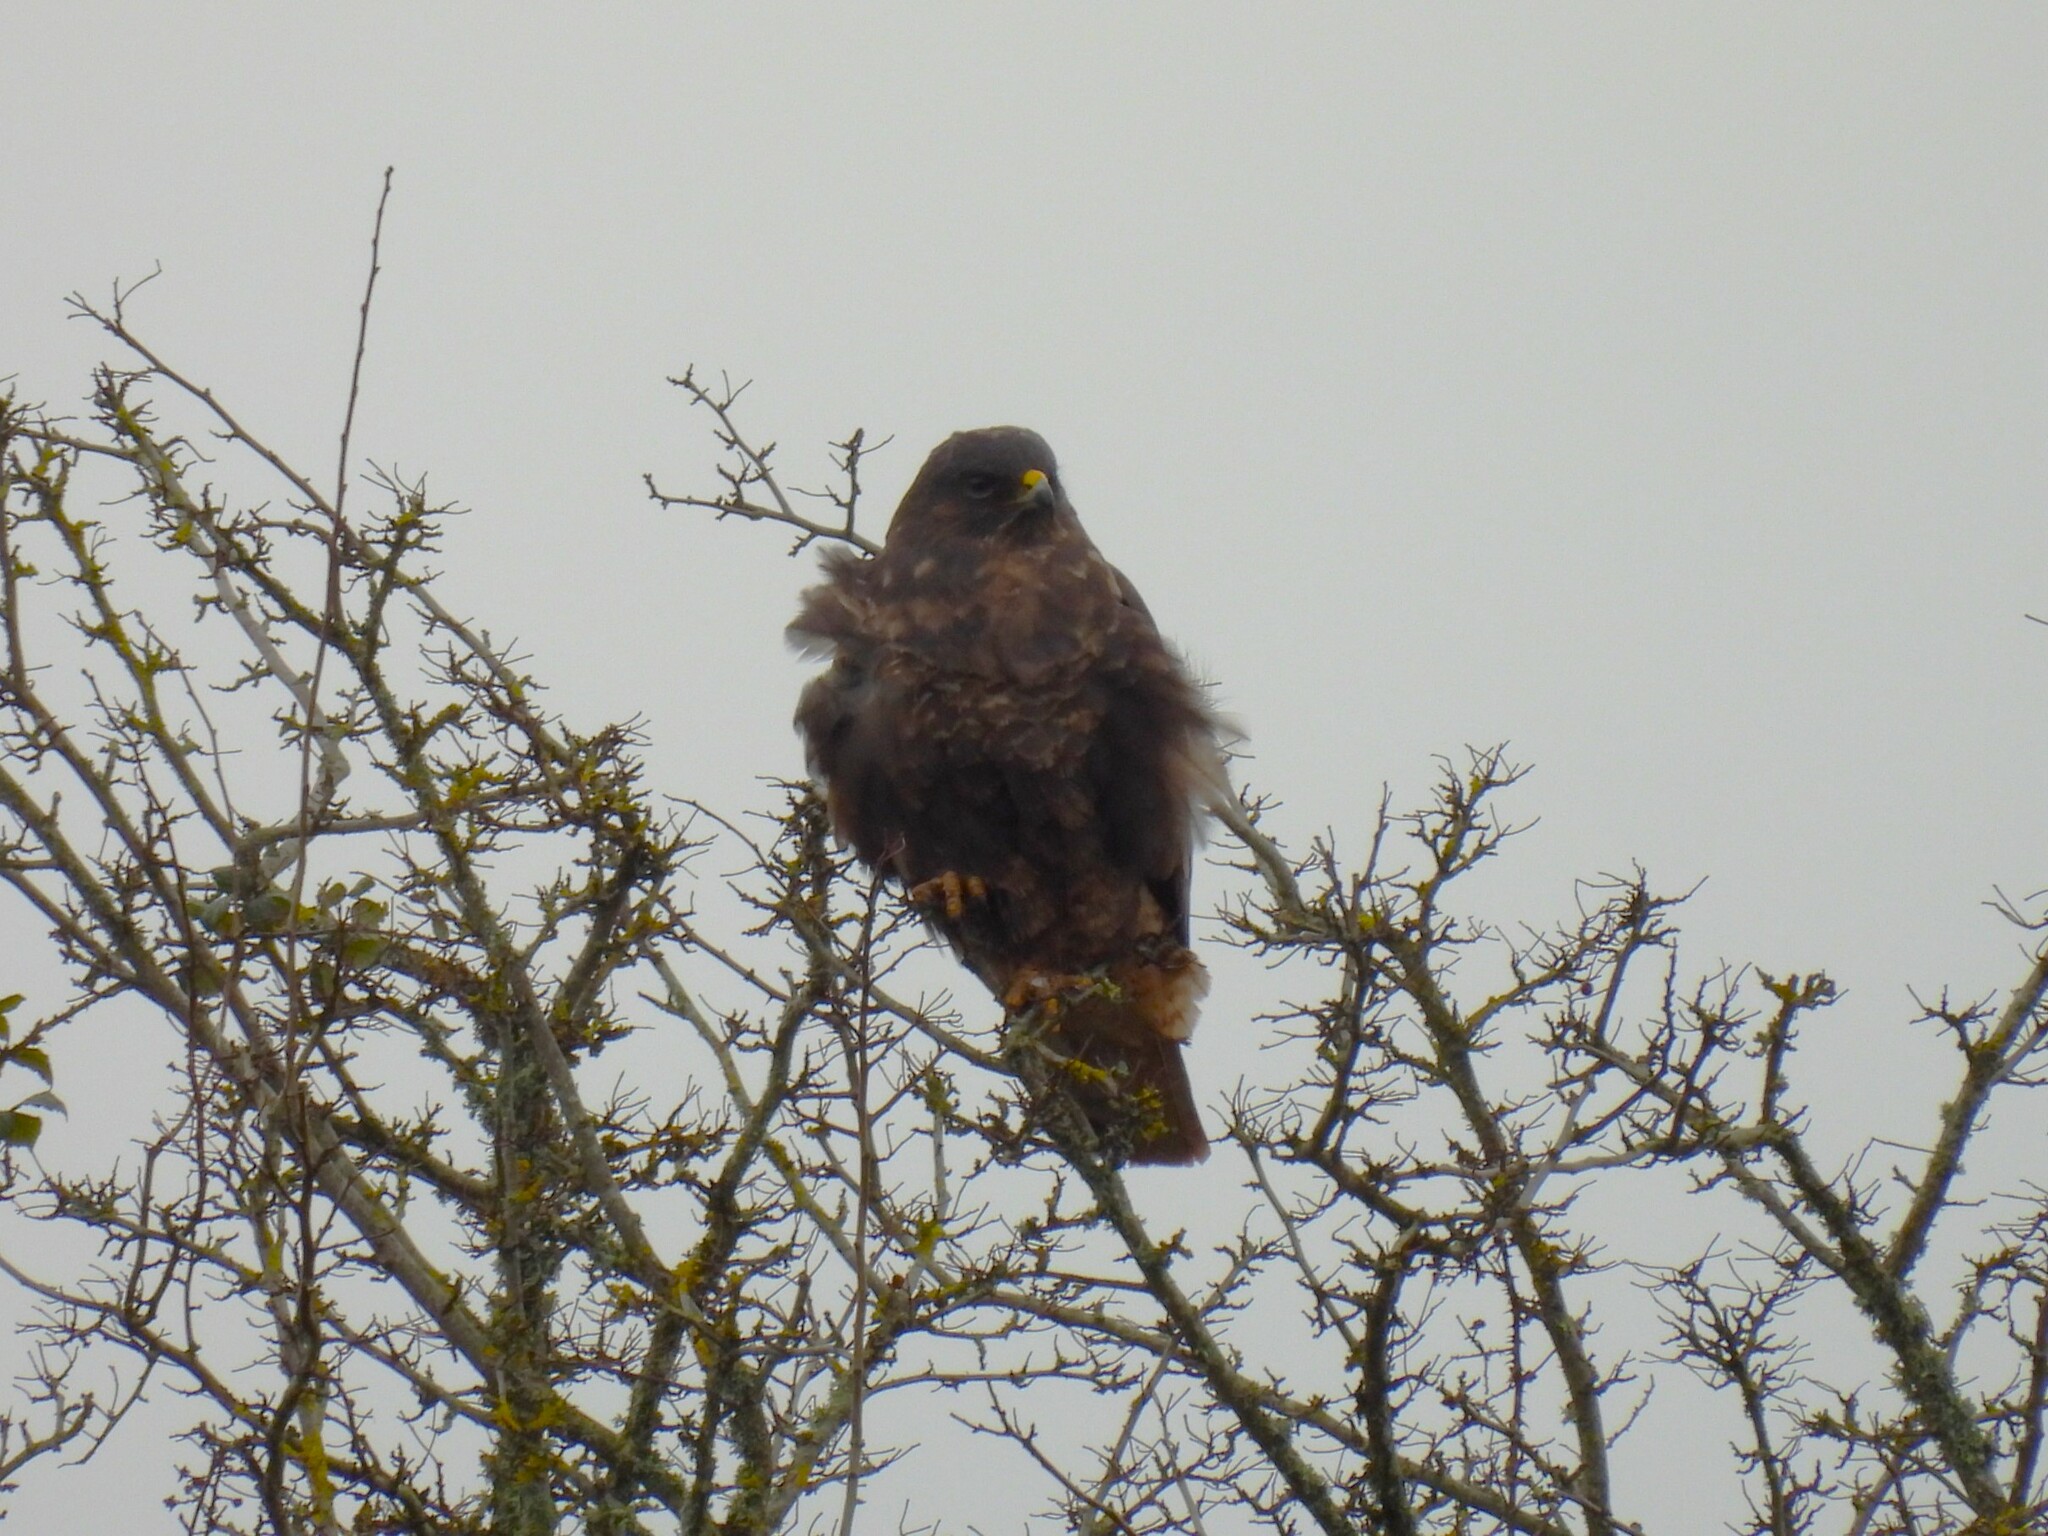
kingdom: Animalia
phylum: Chordata
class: Aves
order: Accipitriformes
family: Accipitridae
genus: Buteo
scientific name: Buteo buteo
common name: Common buzzard
